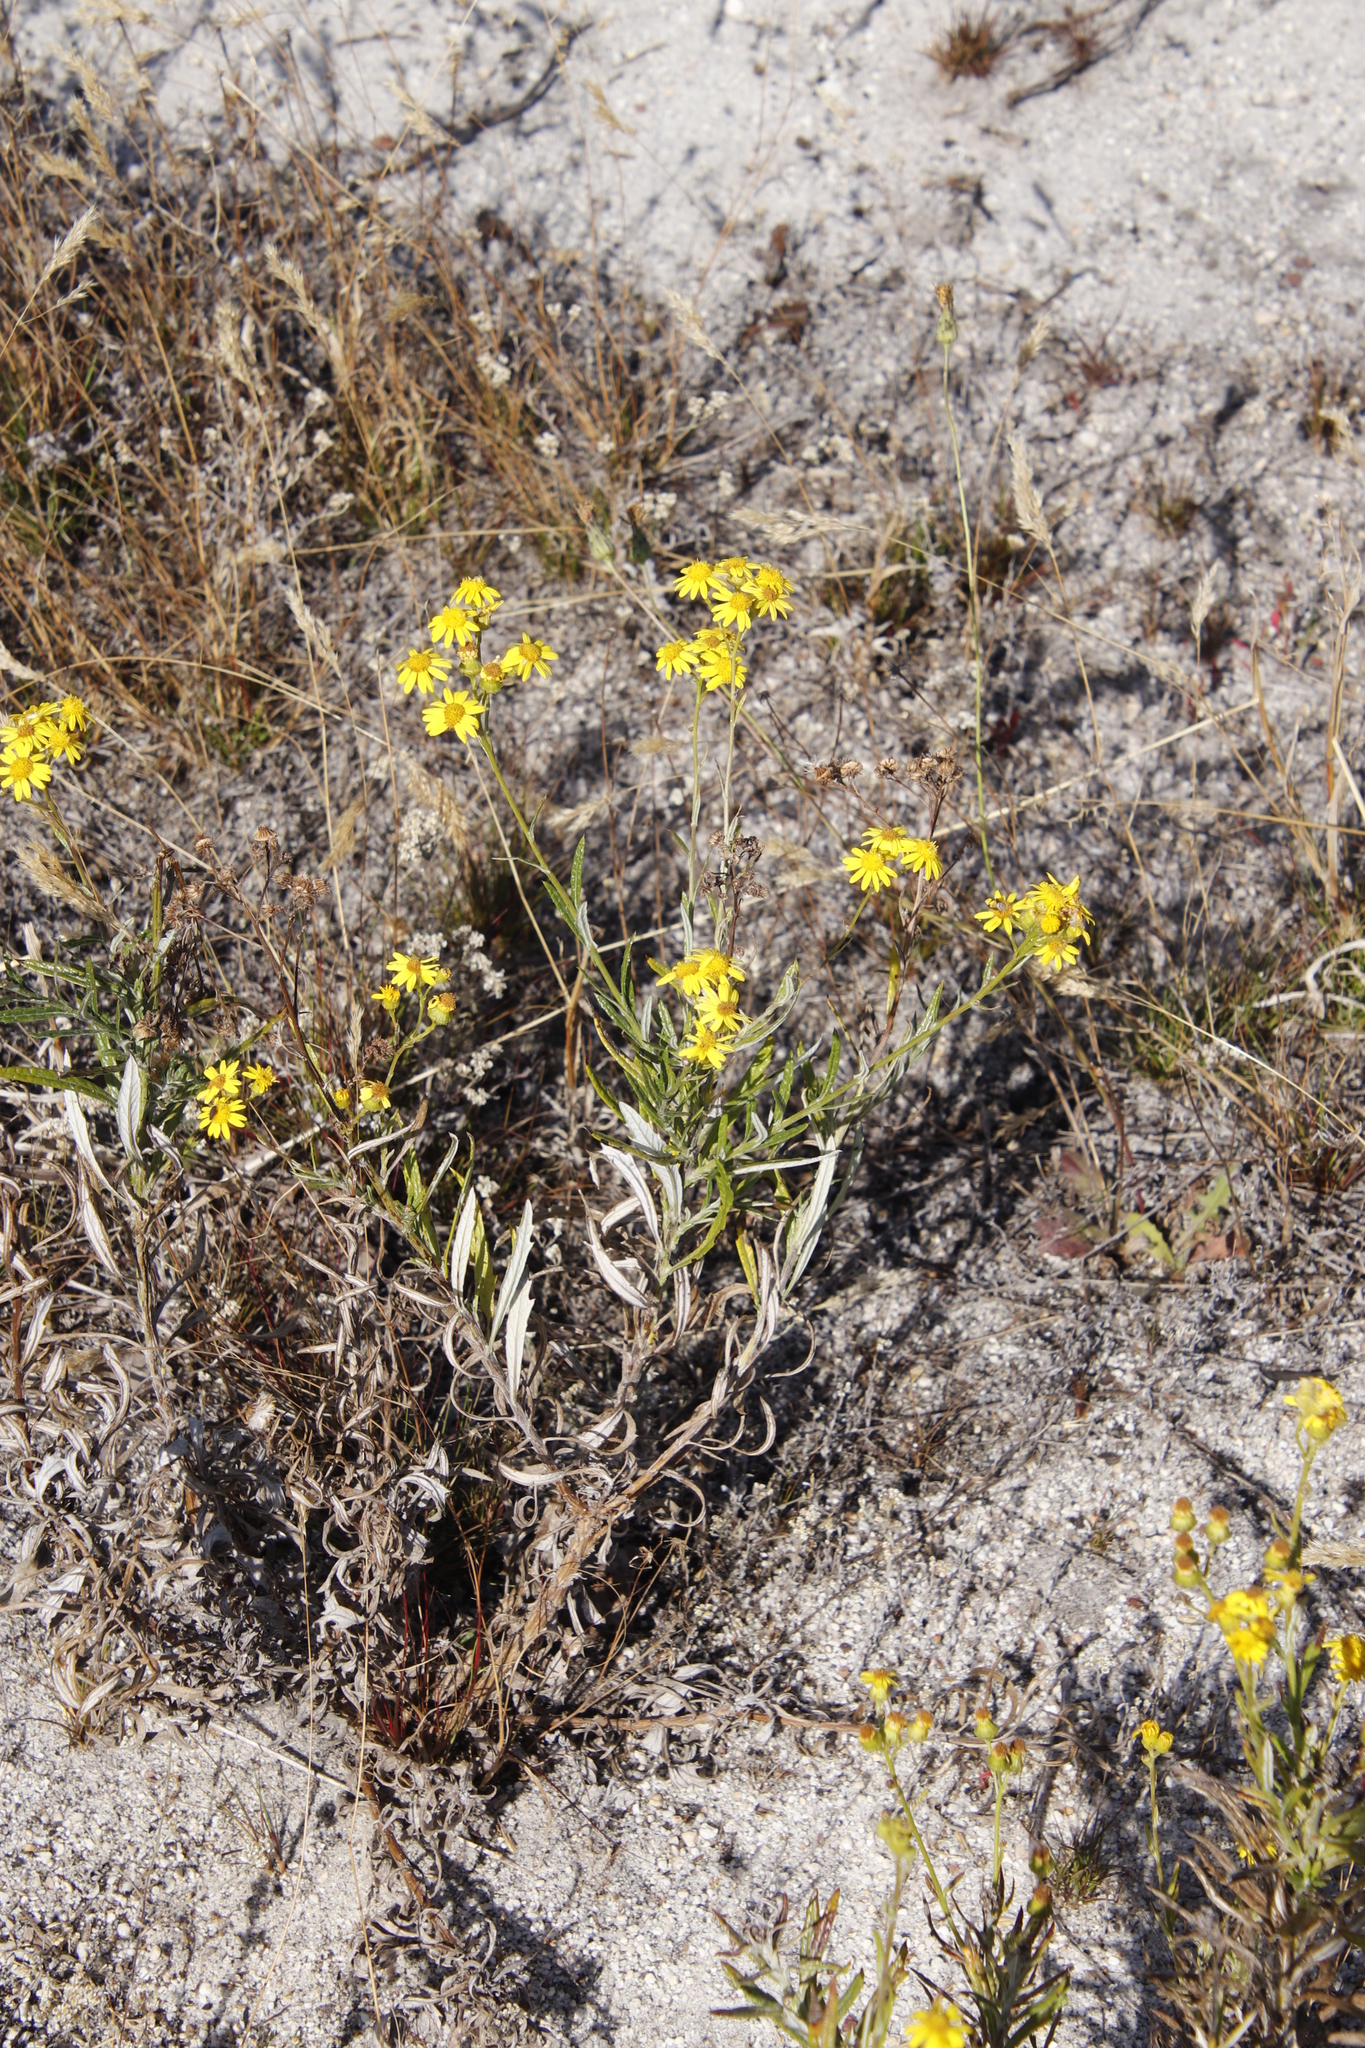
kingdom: Plantae
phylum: Tracheophyta
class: Magnoliopsida
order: Asterales
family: Asteraceae
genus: Senecio
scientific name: Senecio pterophorus
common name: Shoddy ragwort
